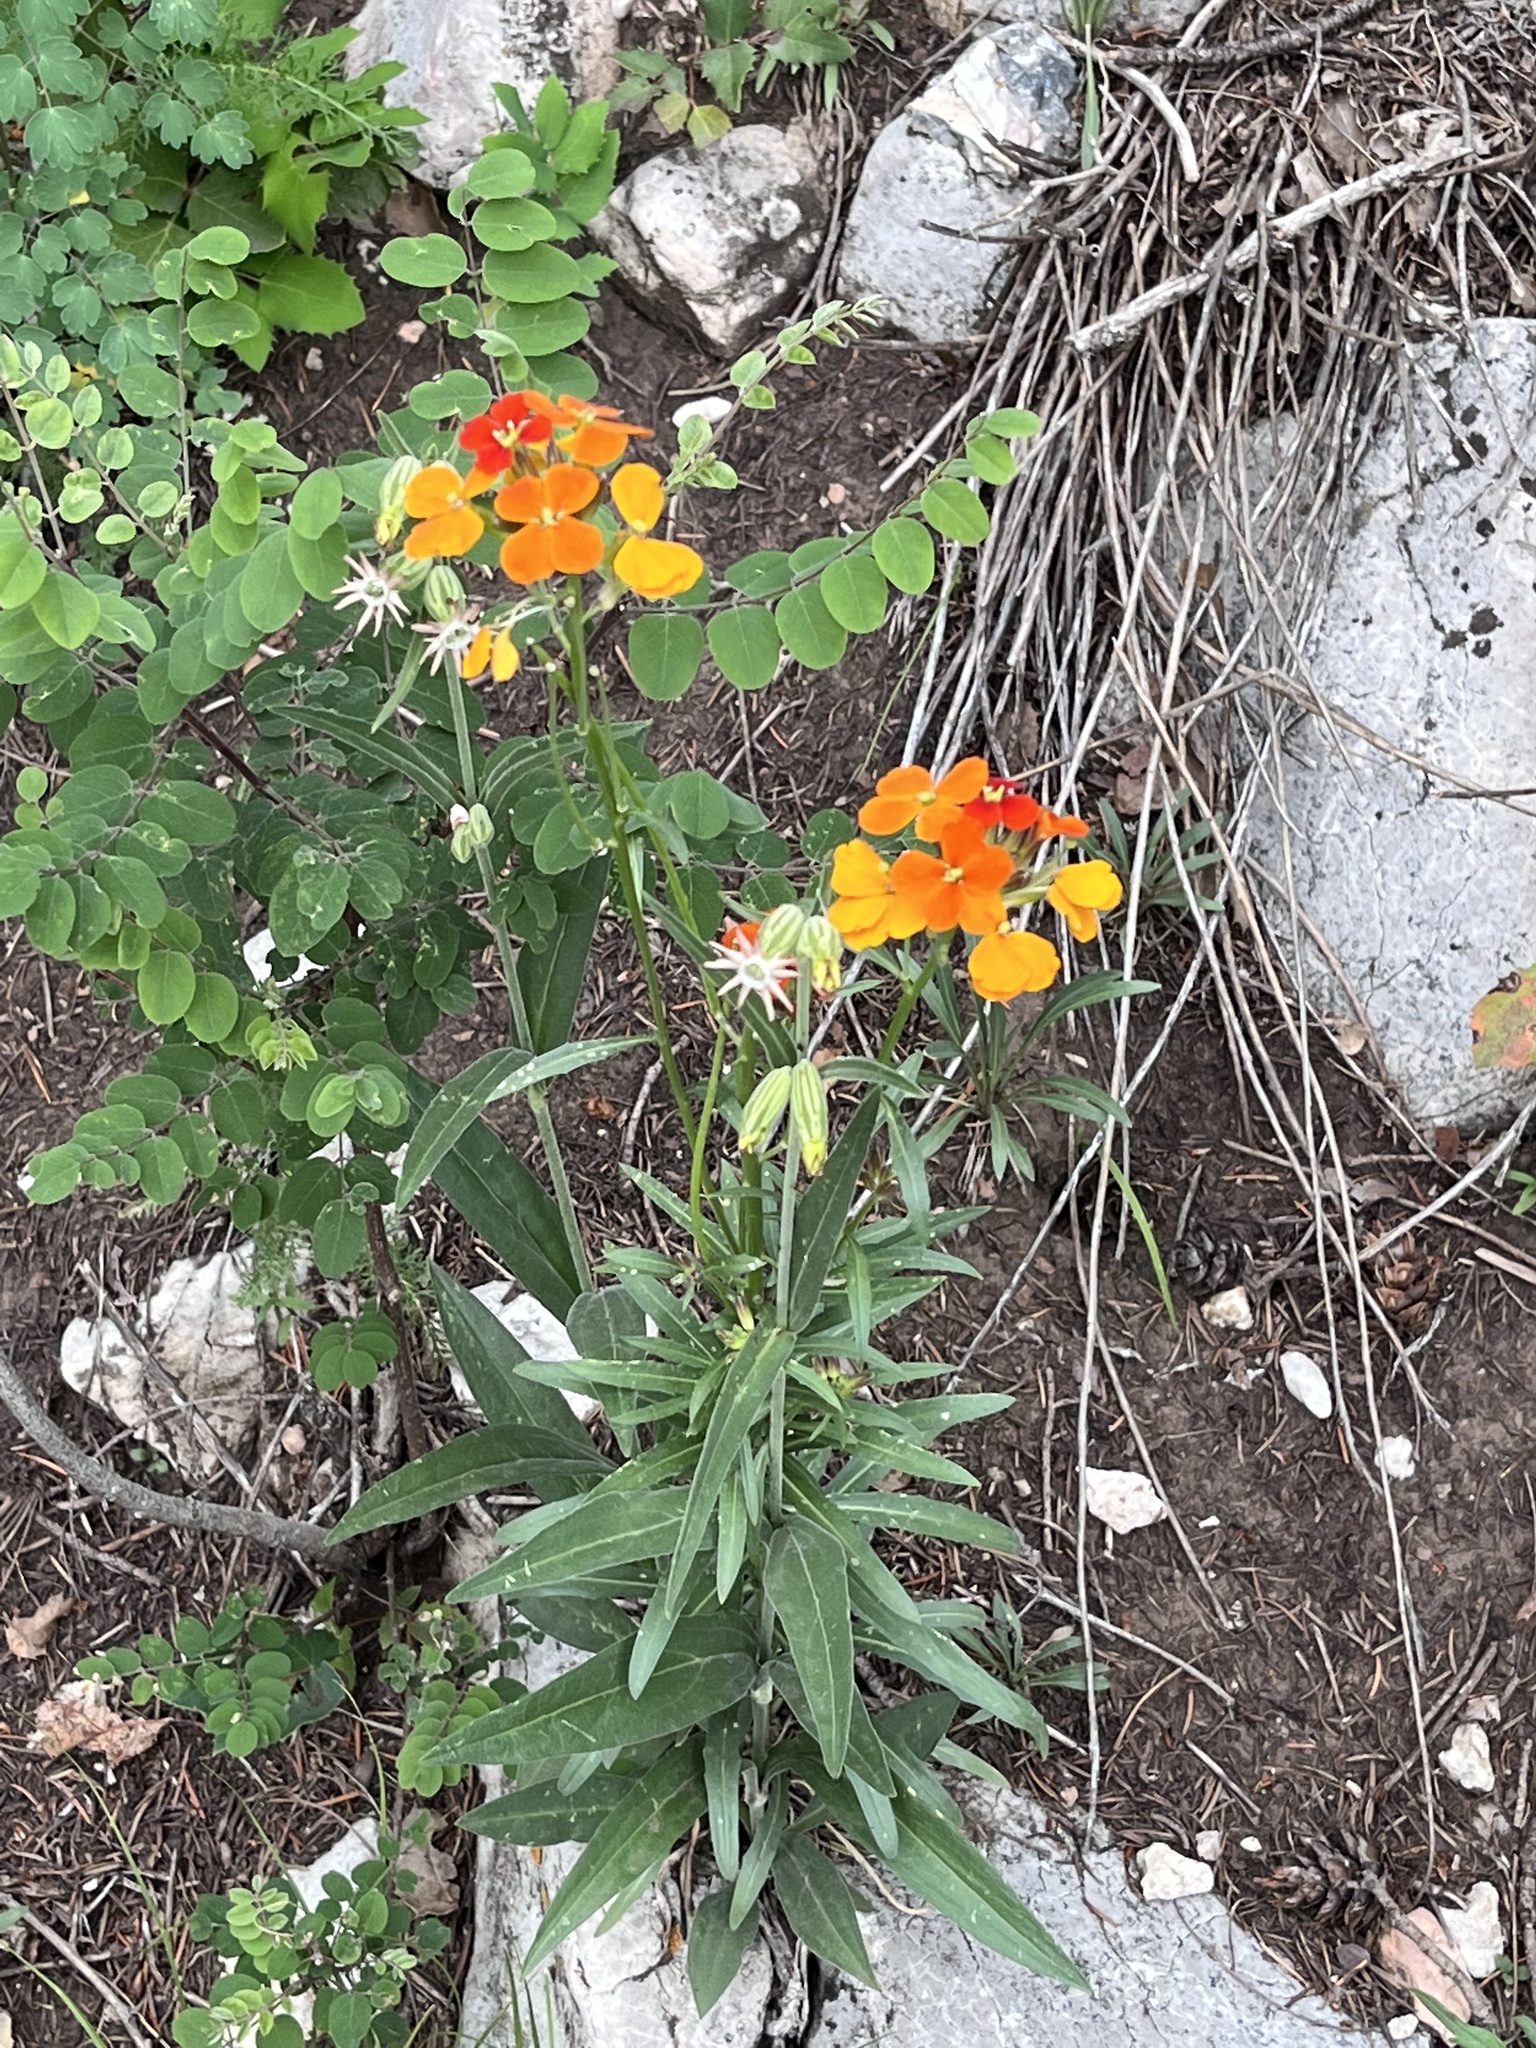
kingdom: Plantae
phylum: Tracheophyta
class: Magnoliopsida
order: Brassicales
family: Brassicaceae
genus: Erysimum
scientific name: Erysimum capitatum
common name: Western wallflower
